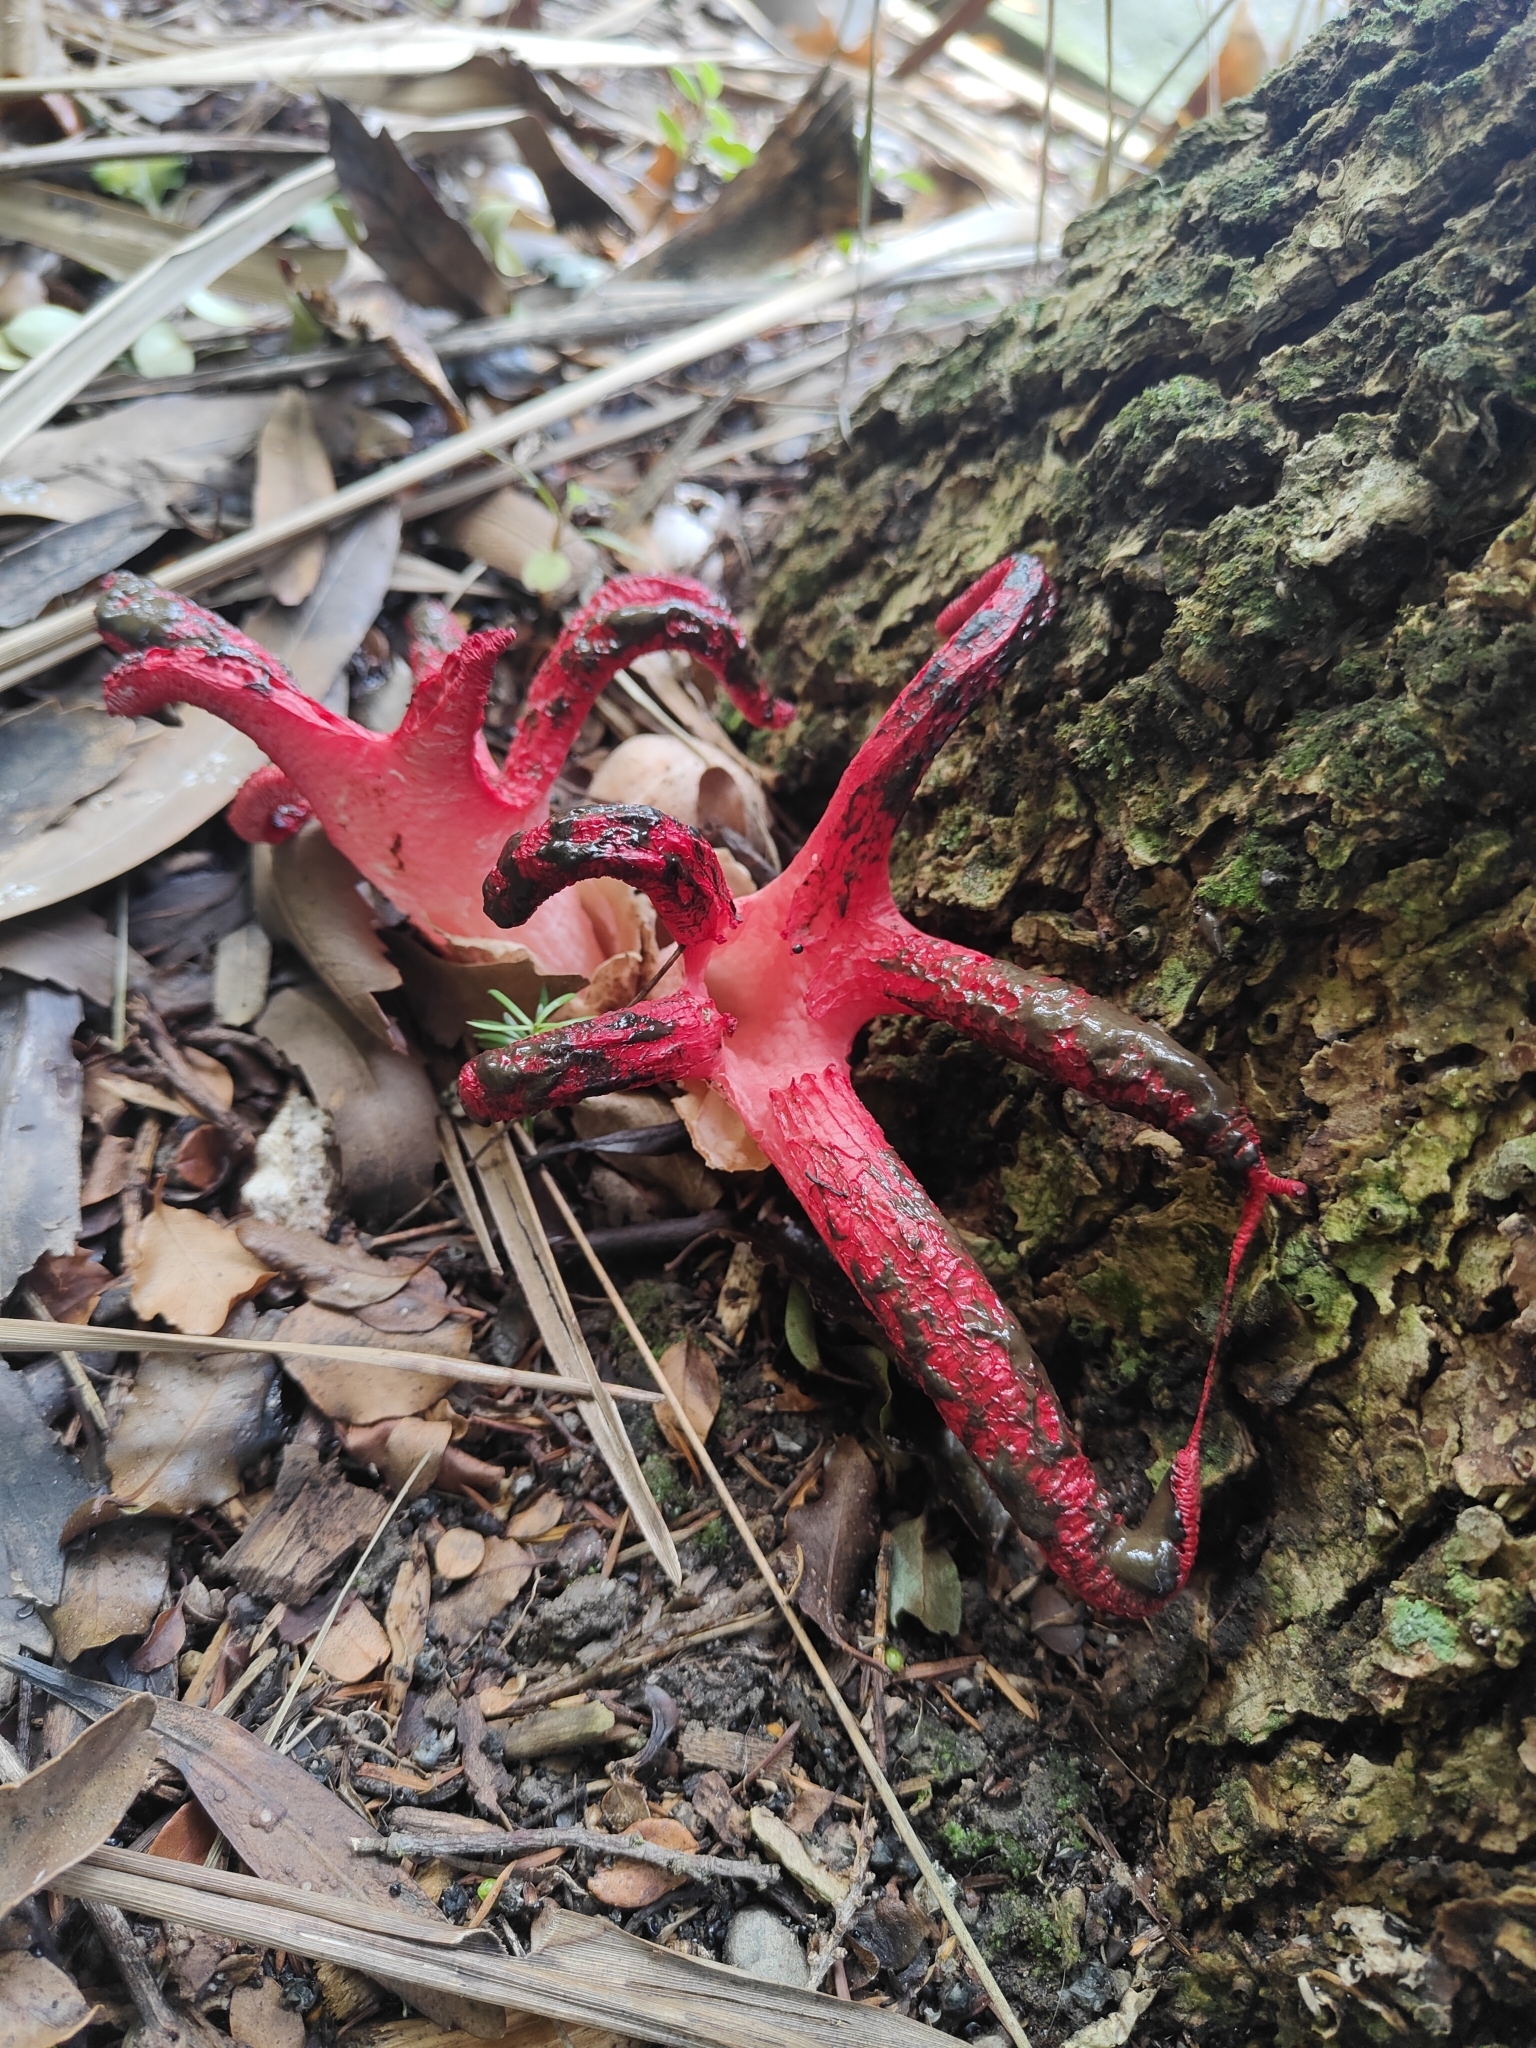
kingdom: Fungi
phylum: Basidiomycota
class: Agaricomycetes
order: Phallales
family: Phallaceae
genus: Clathrus
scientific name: Clathrus archeri
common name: Devil's fingers
